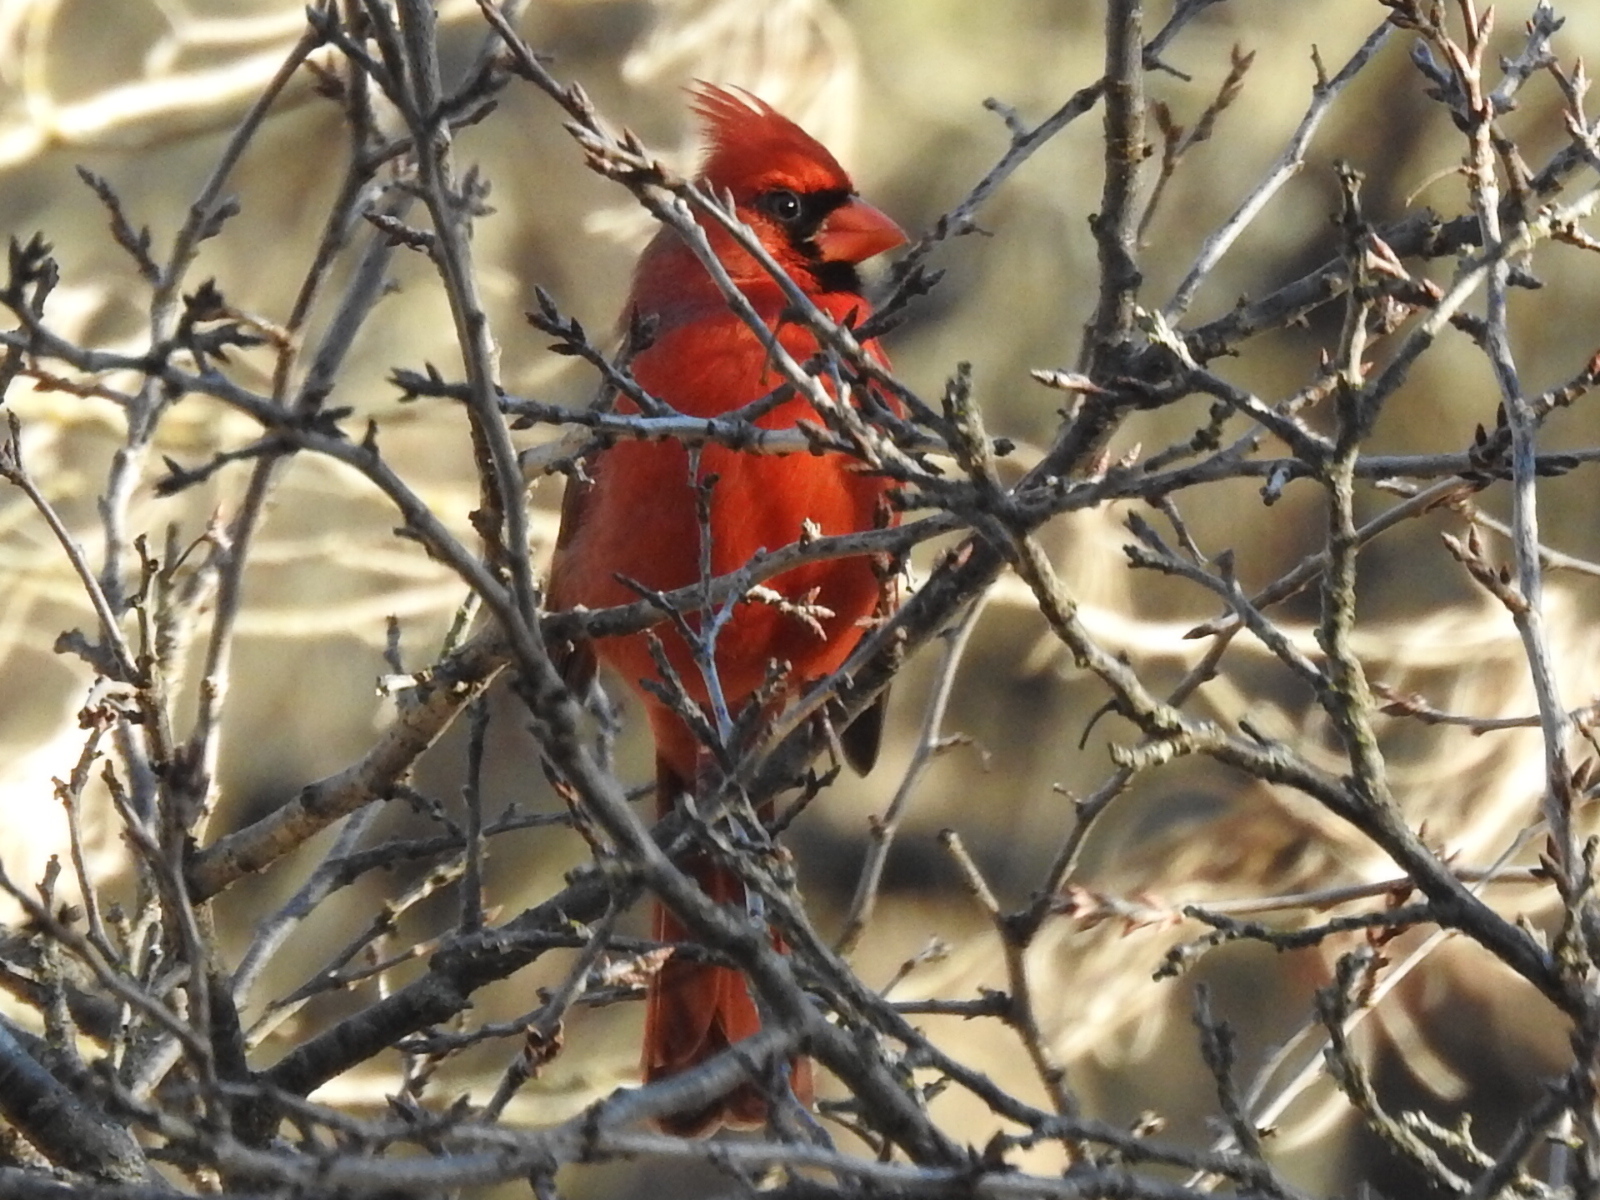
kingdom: Animalia
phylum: Chordata
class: Aves
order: Passeriformes
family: Cardinalidae
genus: Cardinalis
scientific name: Cardinalis cardinalis
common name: Northern cardinal
